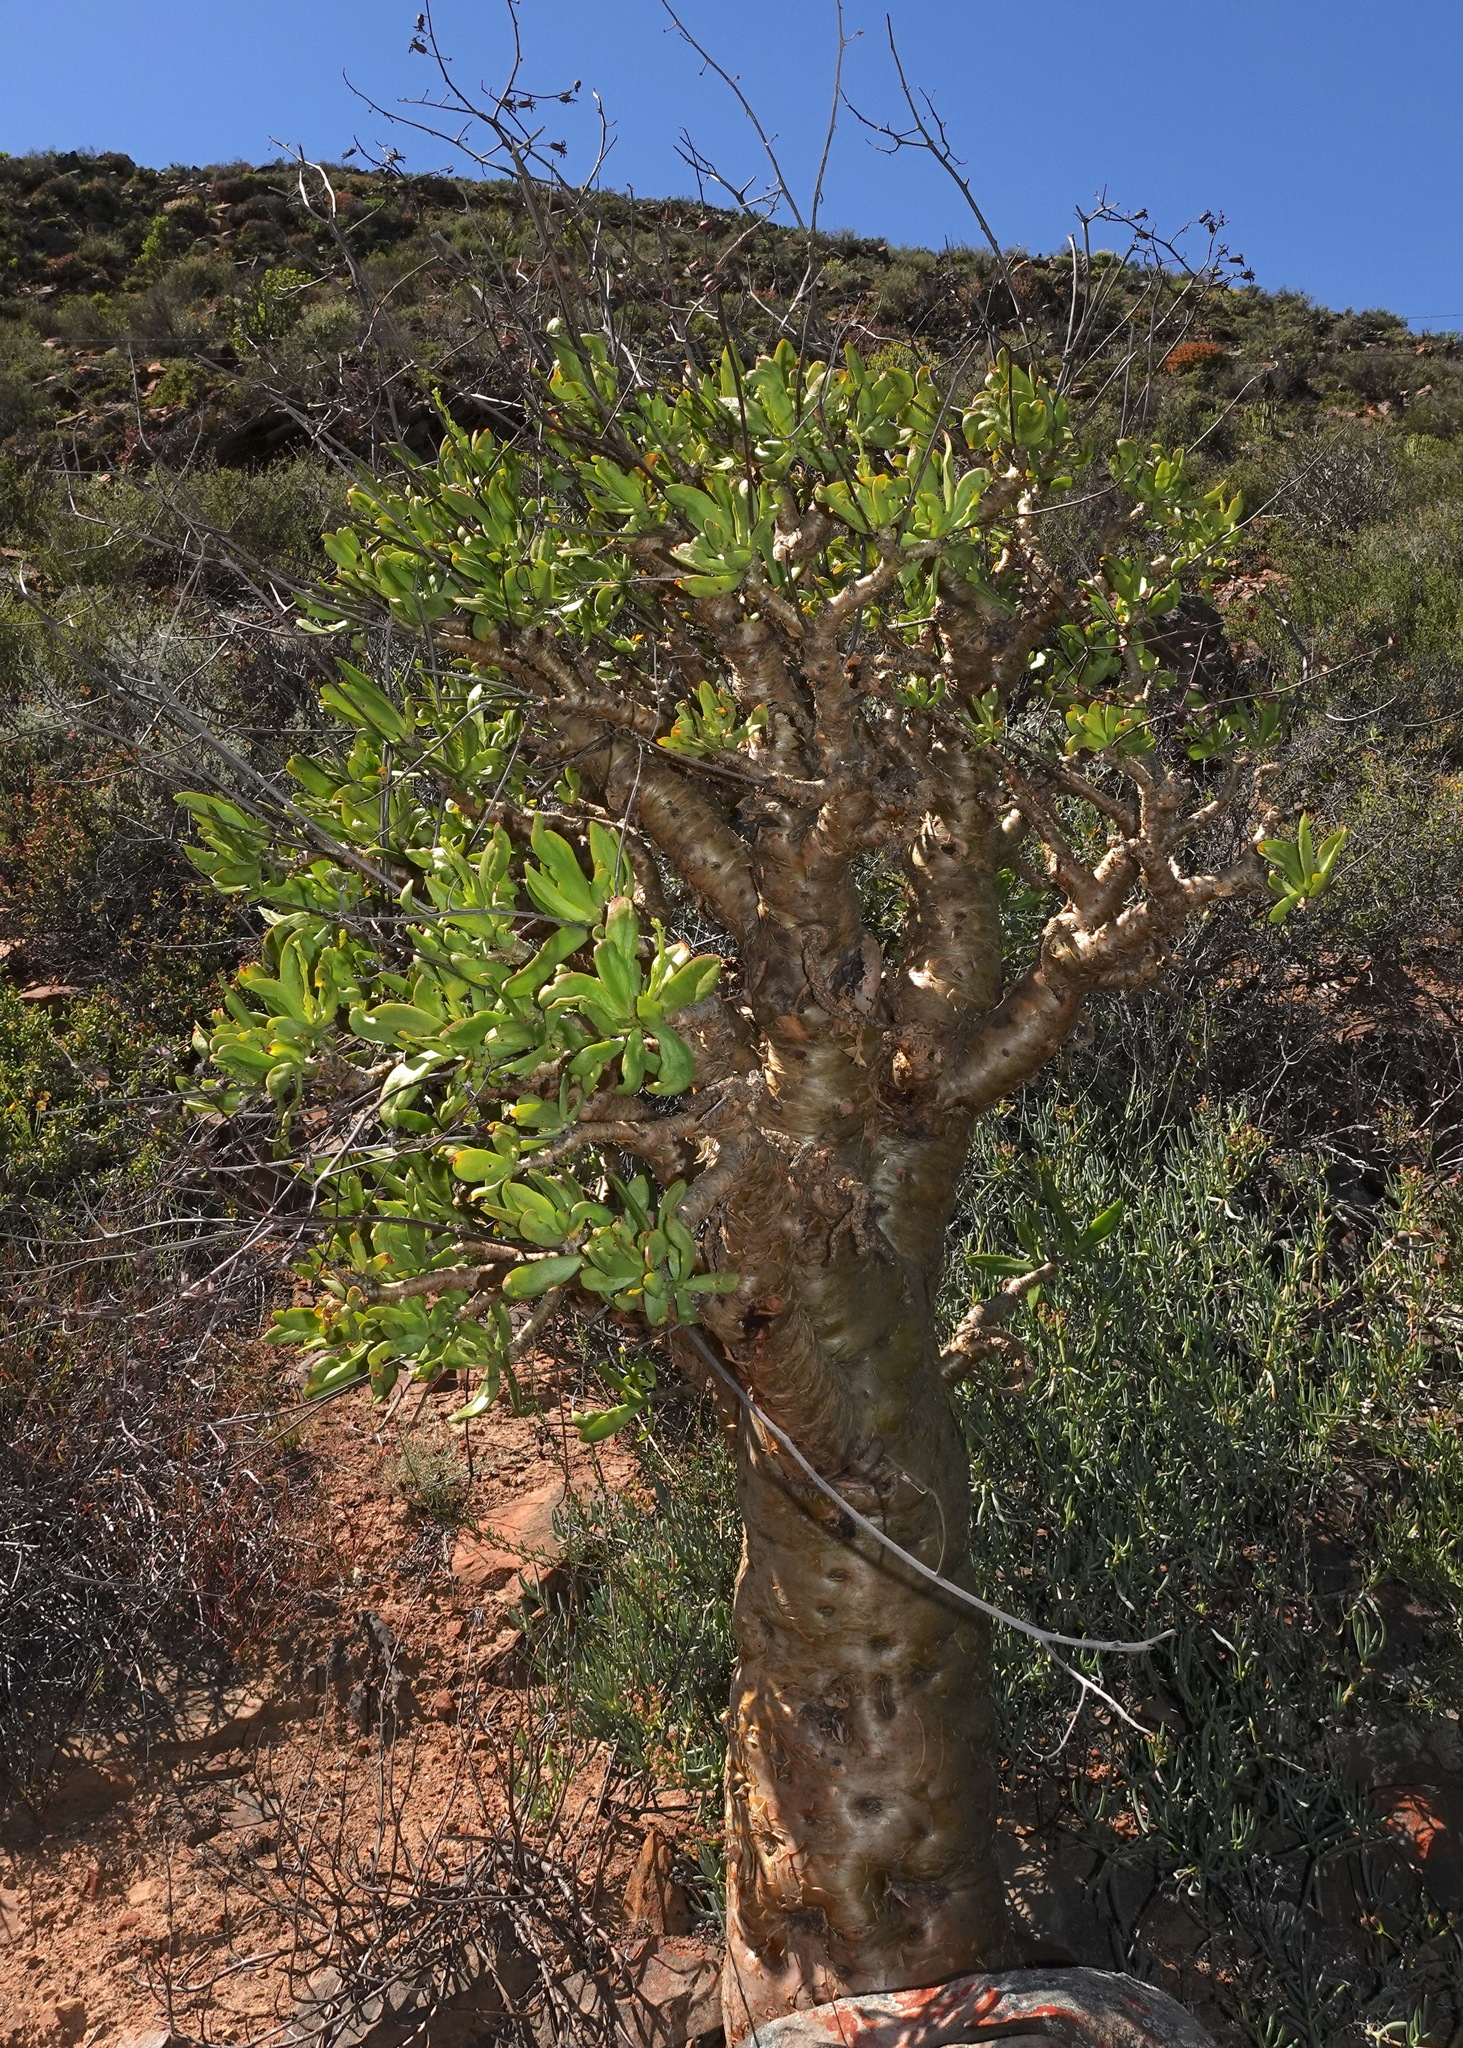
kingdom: Plantae
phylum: Tracheophyta
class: Magnoliopsida
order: Saxifragales
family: Crassulaceae
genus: Tylecodon
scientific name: Tylecodon paniculatus
